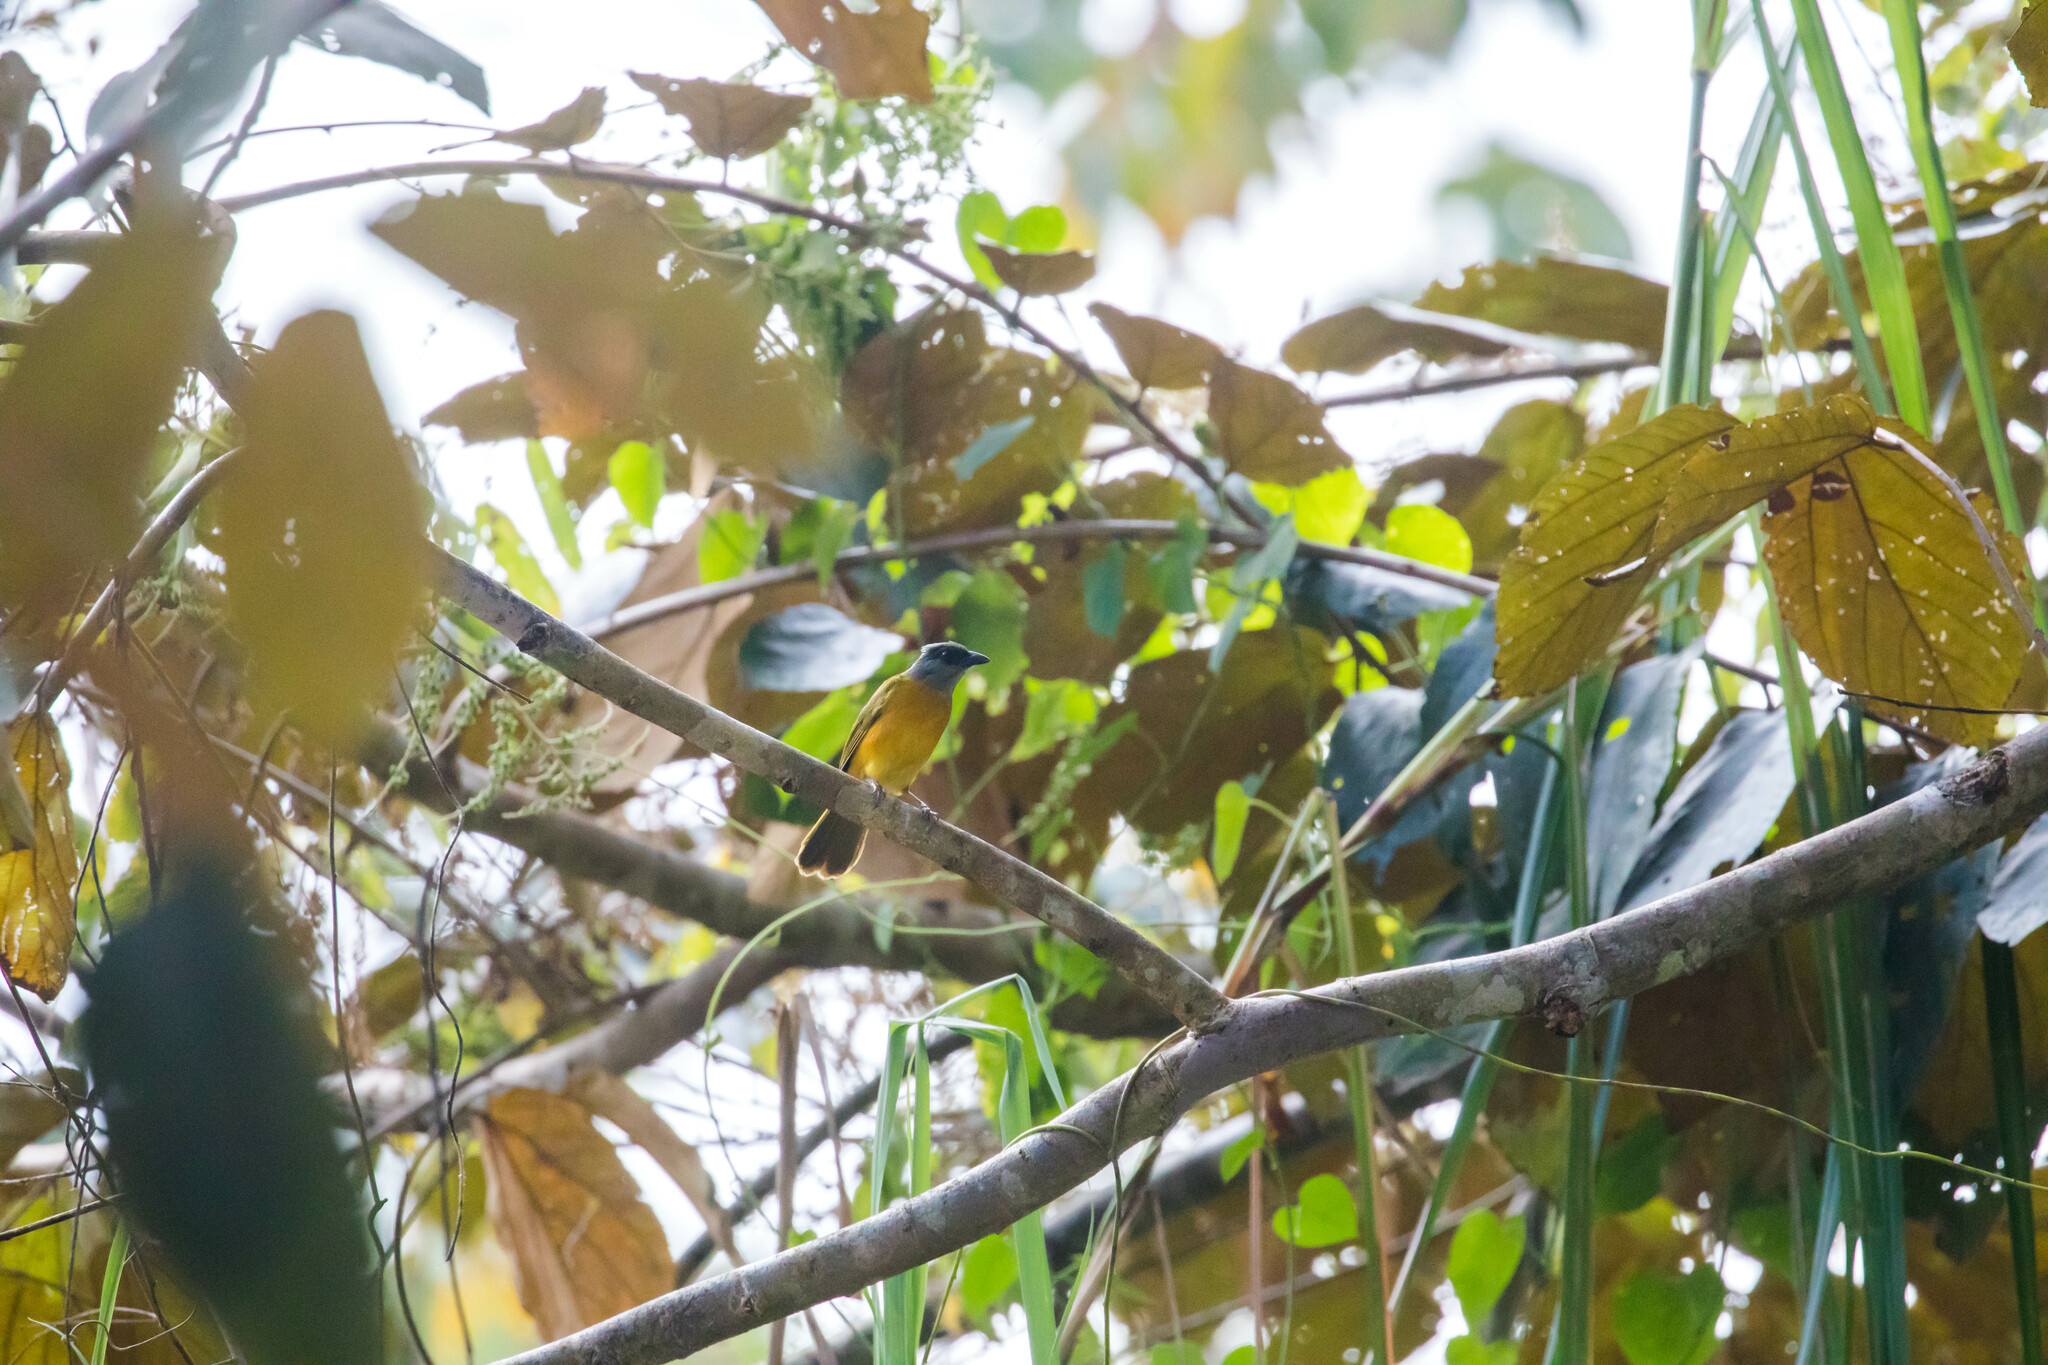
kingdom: Animalia
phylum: Chordata
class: Aves
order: Passeriformes
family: Thraupidae
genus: Eucometis
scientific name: Eucometis penicillata
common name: Grey-headed tanager
